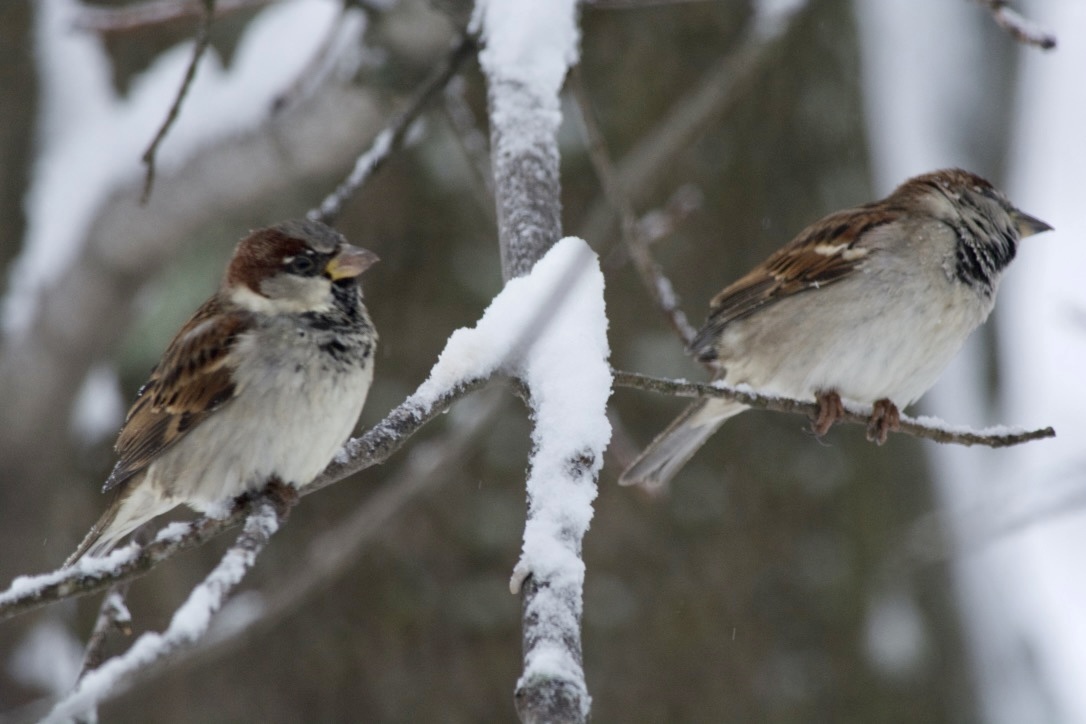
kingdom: Animalia
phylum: Chordata
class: Aves
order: Passeriformes
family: Passeridae
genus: Passer
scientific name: Passer domesticus
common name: House sparrow
